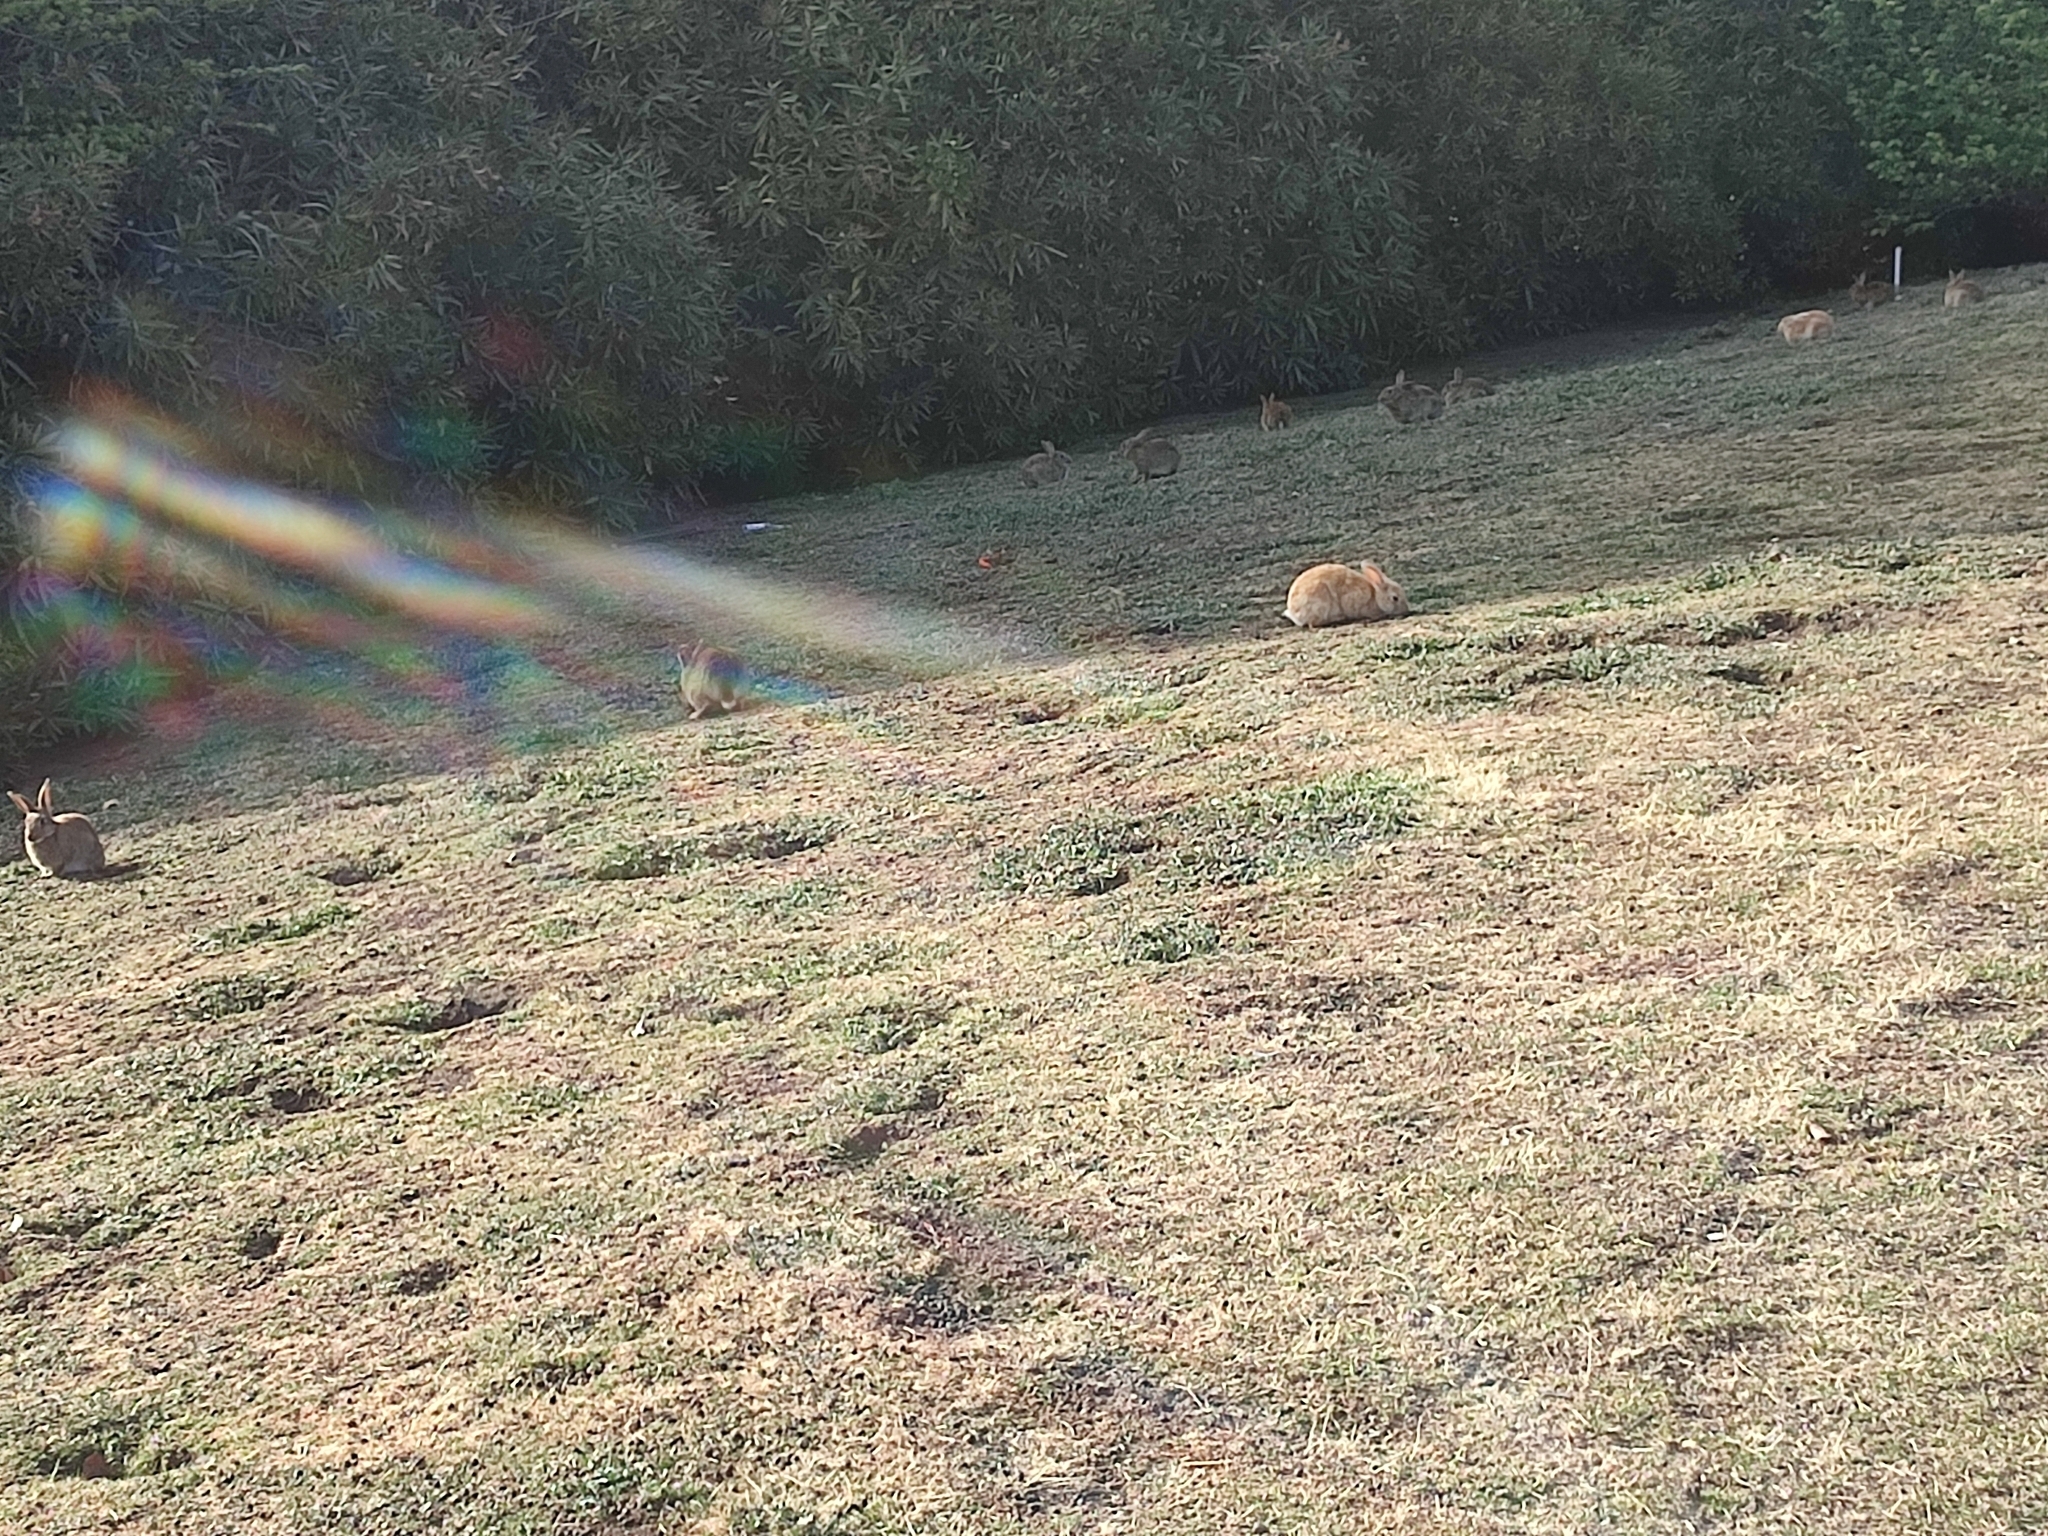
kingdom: Animalia
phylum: Chordata
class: Mammalia
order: Lagomorpha
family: Leporidae
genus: Oryctolagus
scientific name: Oryctolagus cuniculus
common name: European rabbit
